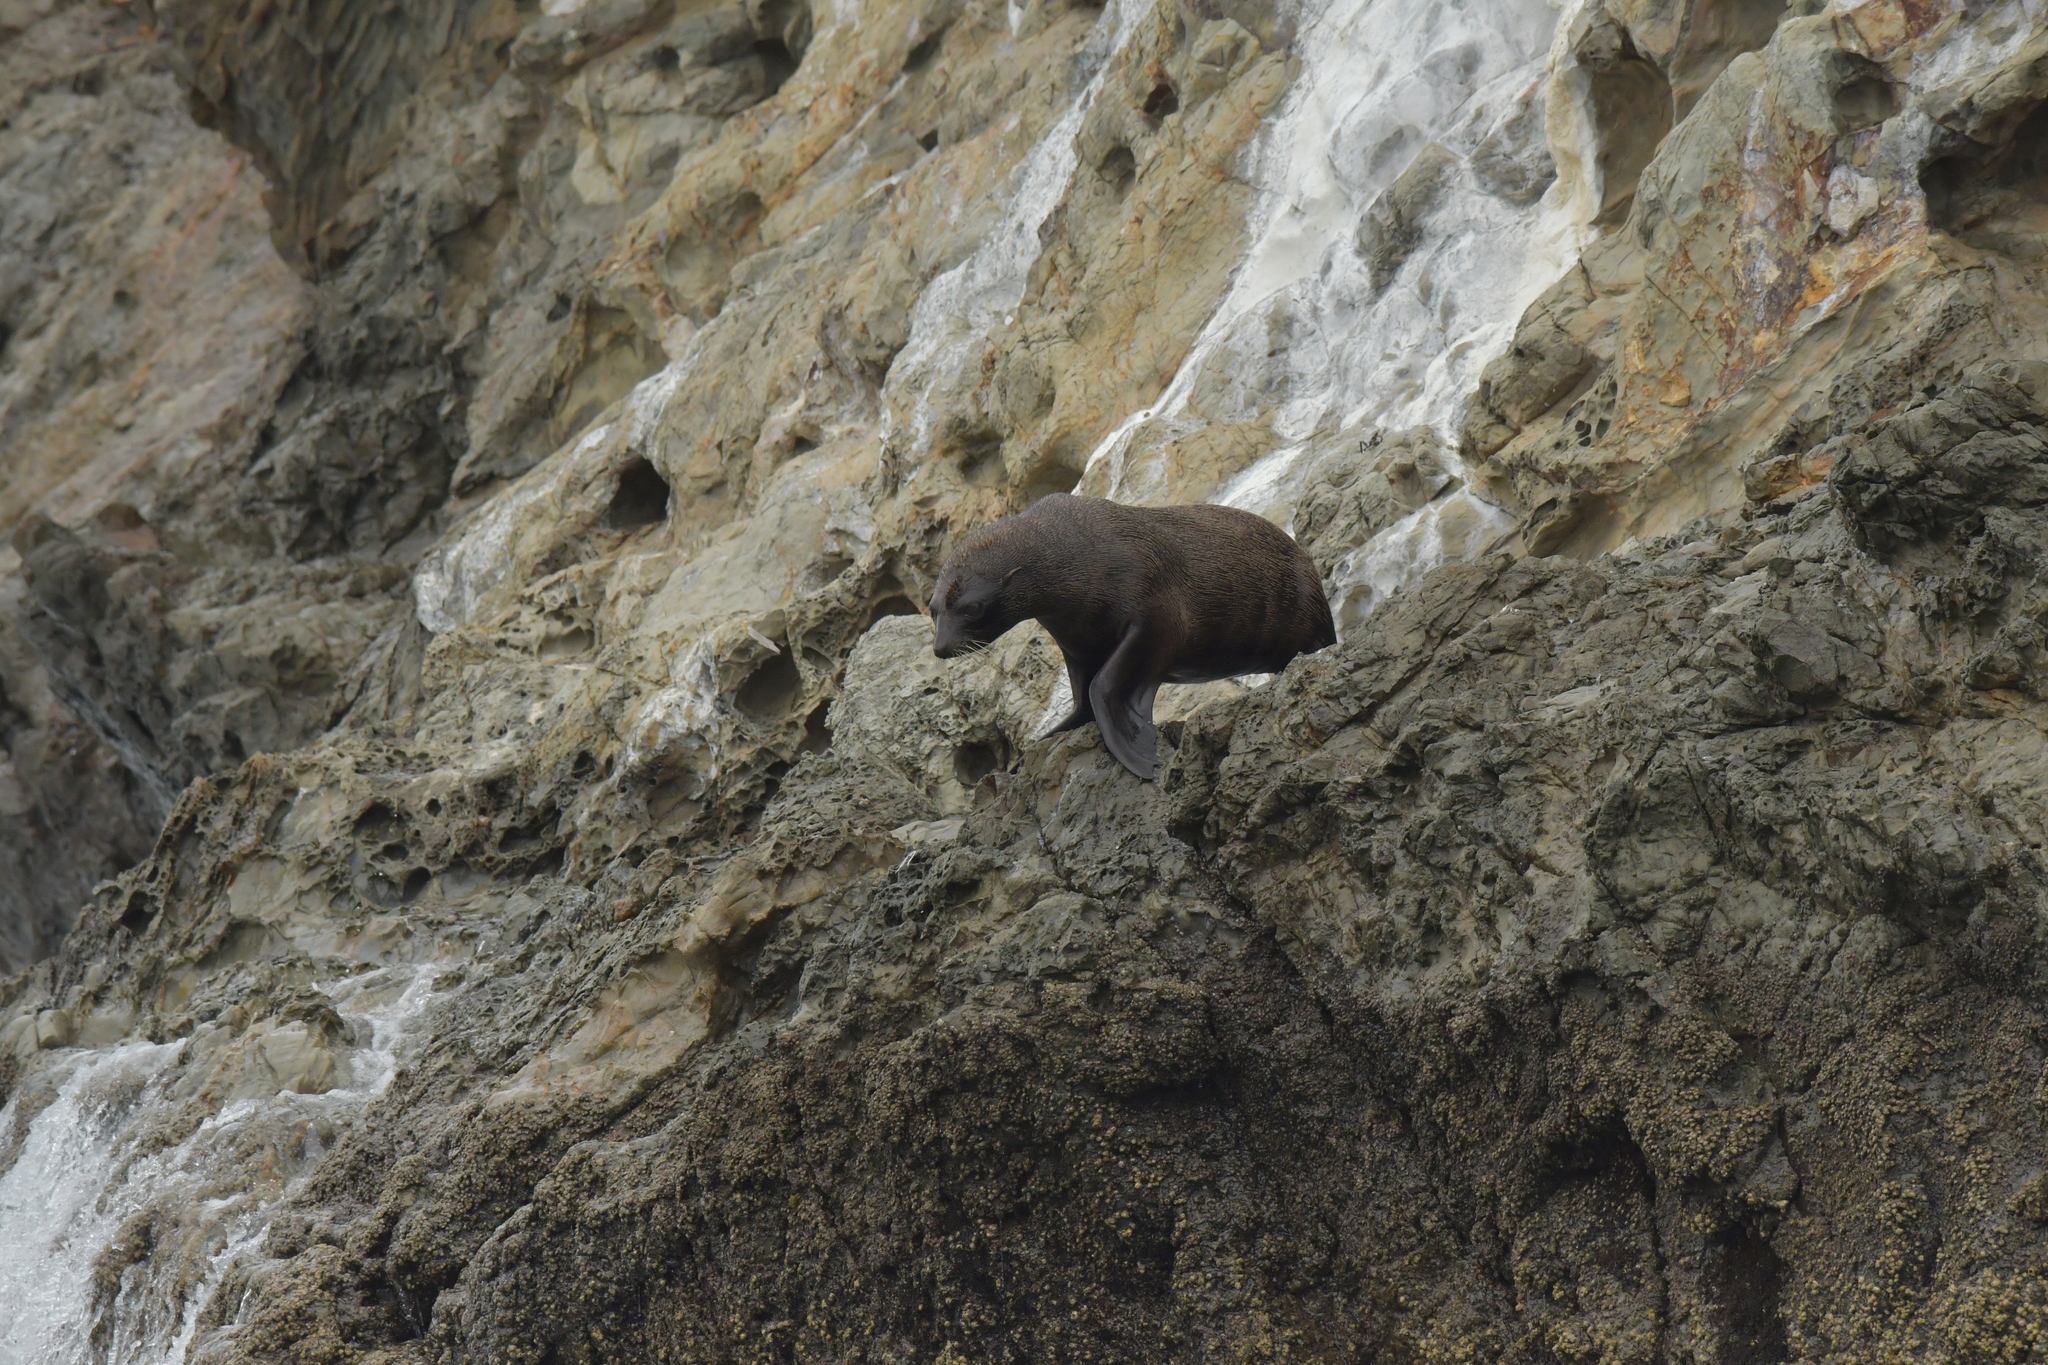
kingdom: Animalia
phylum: Chordata
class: Mammalia
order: Carnivora
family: Otariidae
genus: Arctocephalus
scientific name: Arctocephalus forsteri
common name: New zealand fur seal
